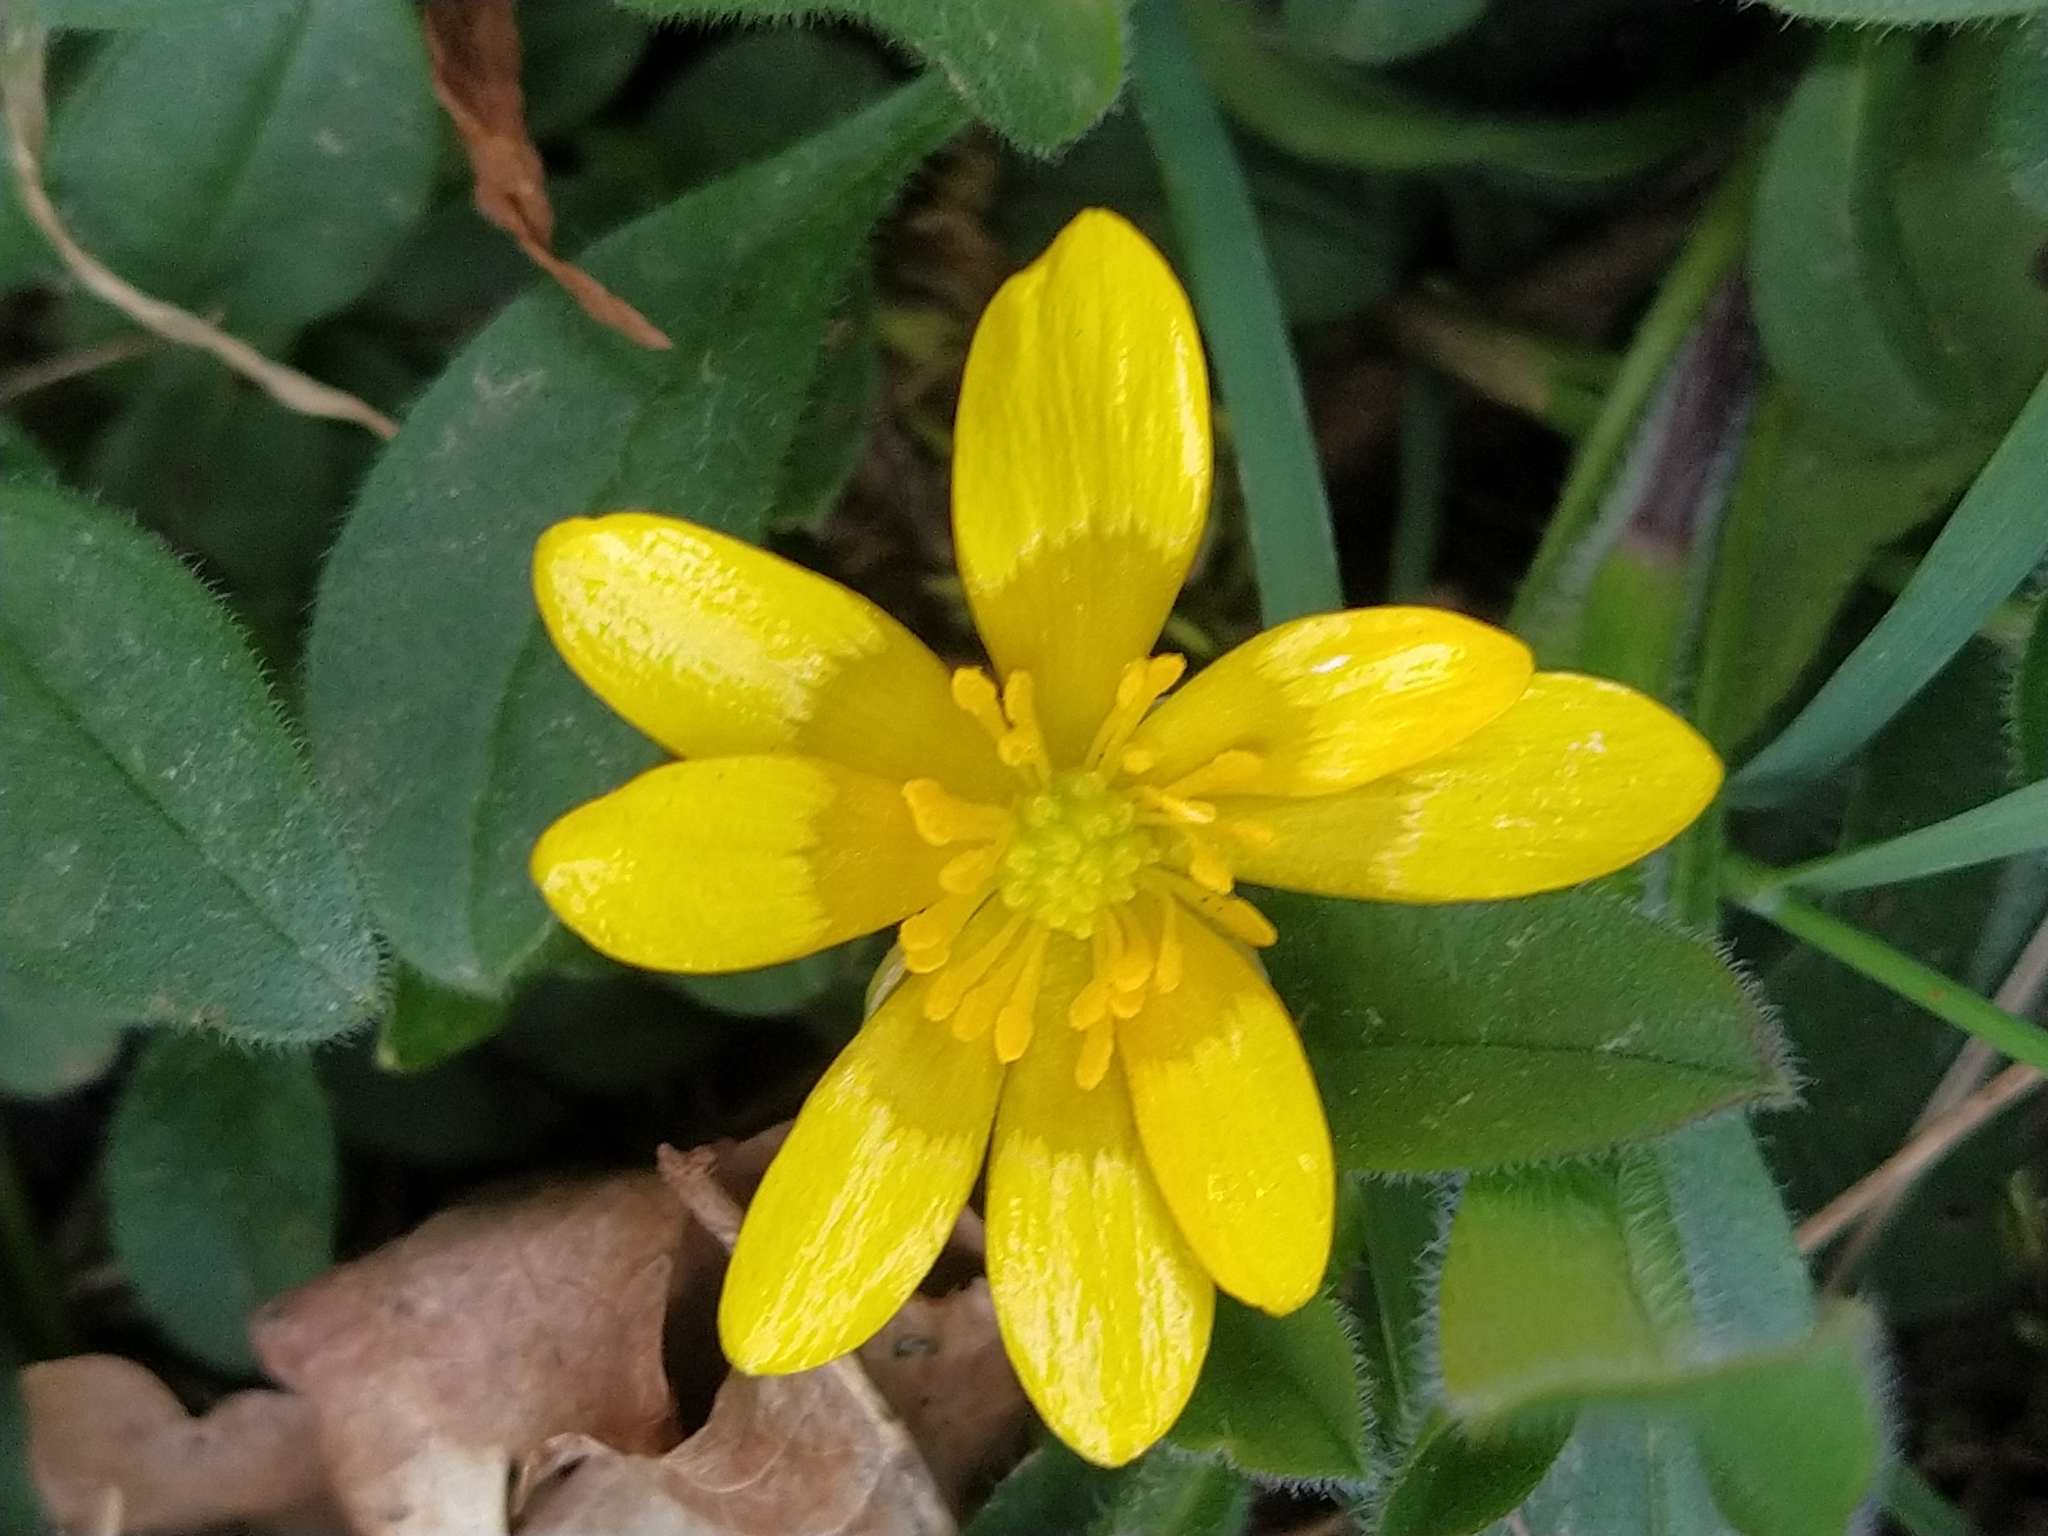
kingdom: Plantae
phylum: Tracheophyta
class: Magnoliopsida
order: Ranunculales
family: Ranunculaceae
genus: Ficaria
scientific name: Ficaria verna
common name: Lesser celandine
